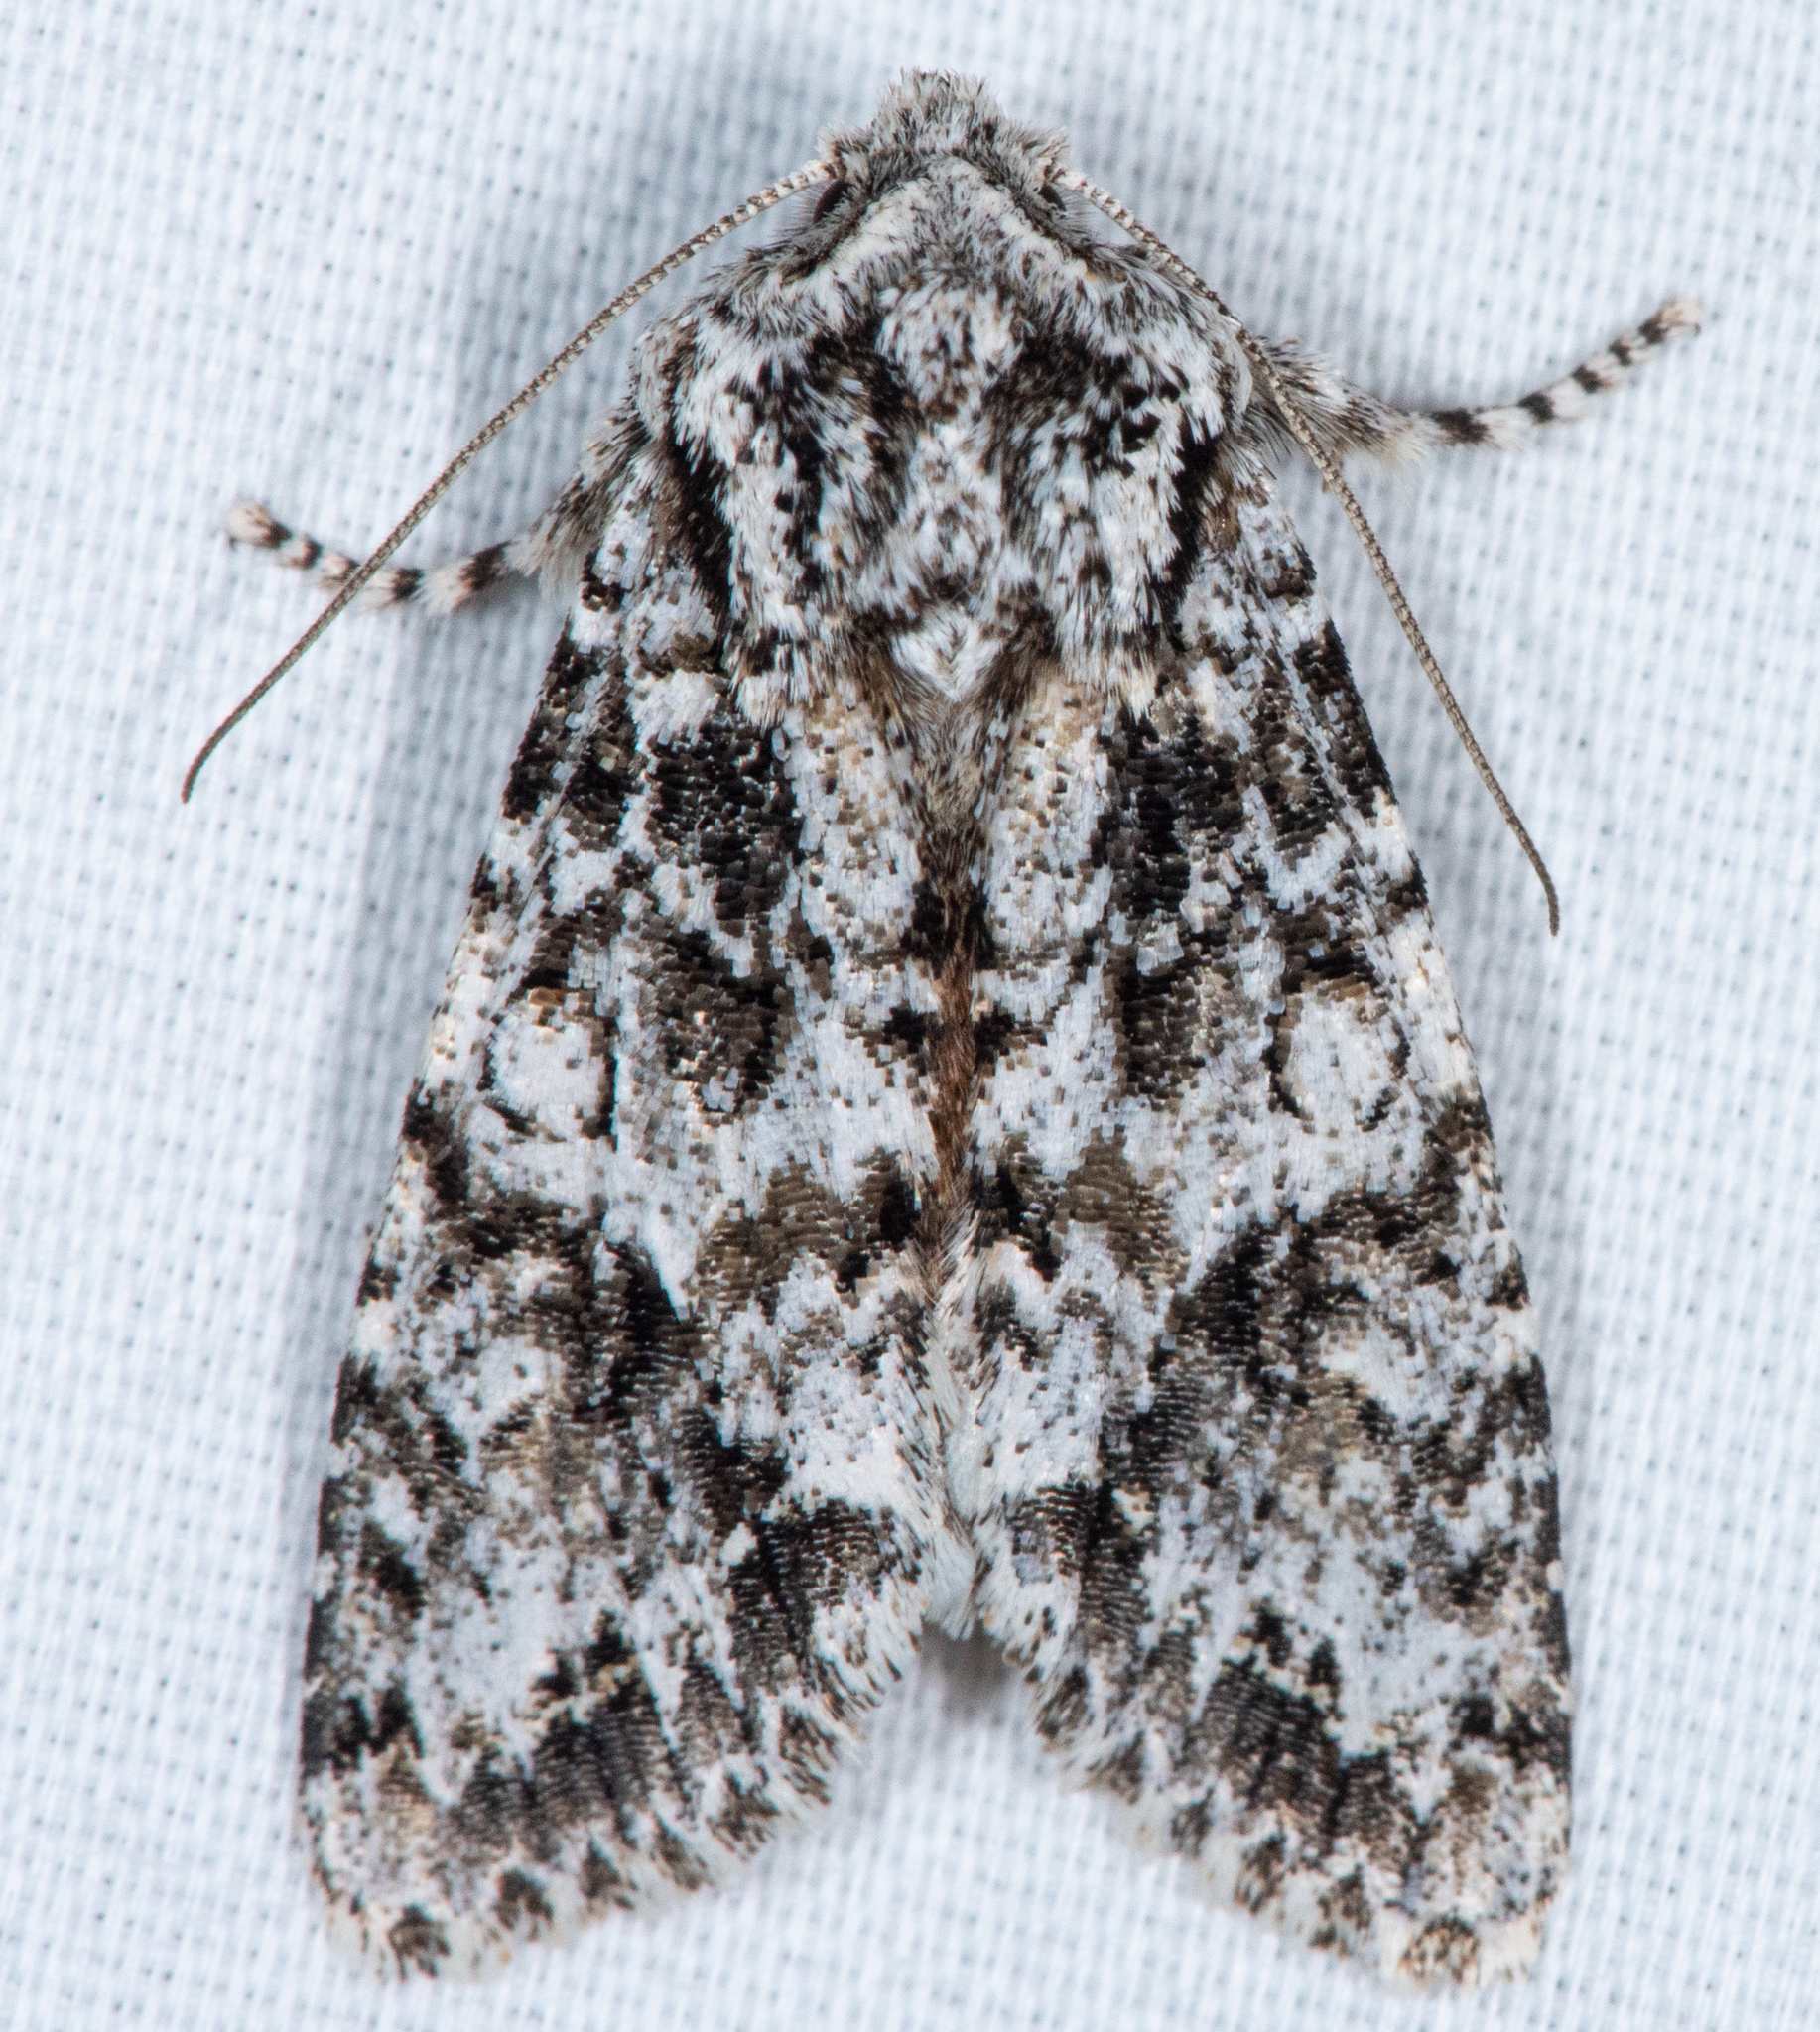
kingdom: Animalia
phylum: Arthropoda
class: Insecta
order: Lepidoptera
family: Noctuidae
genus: Egira
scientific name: Egira februalis
